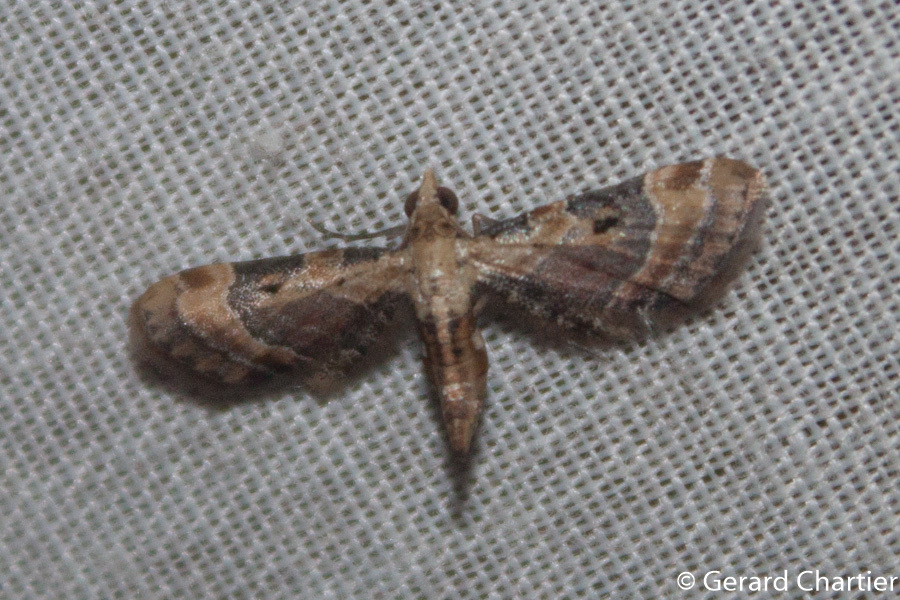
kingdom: Animalia
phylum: Arthropoda
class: Insecta
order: Lepidoptera
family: Geometridae
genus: Eupithecia
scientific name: Eupithecia melanolopha
